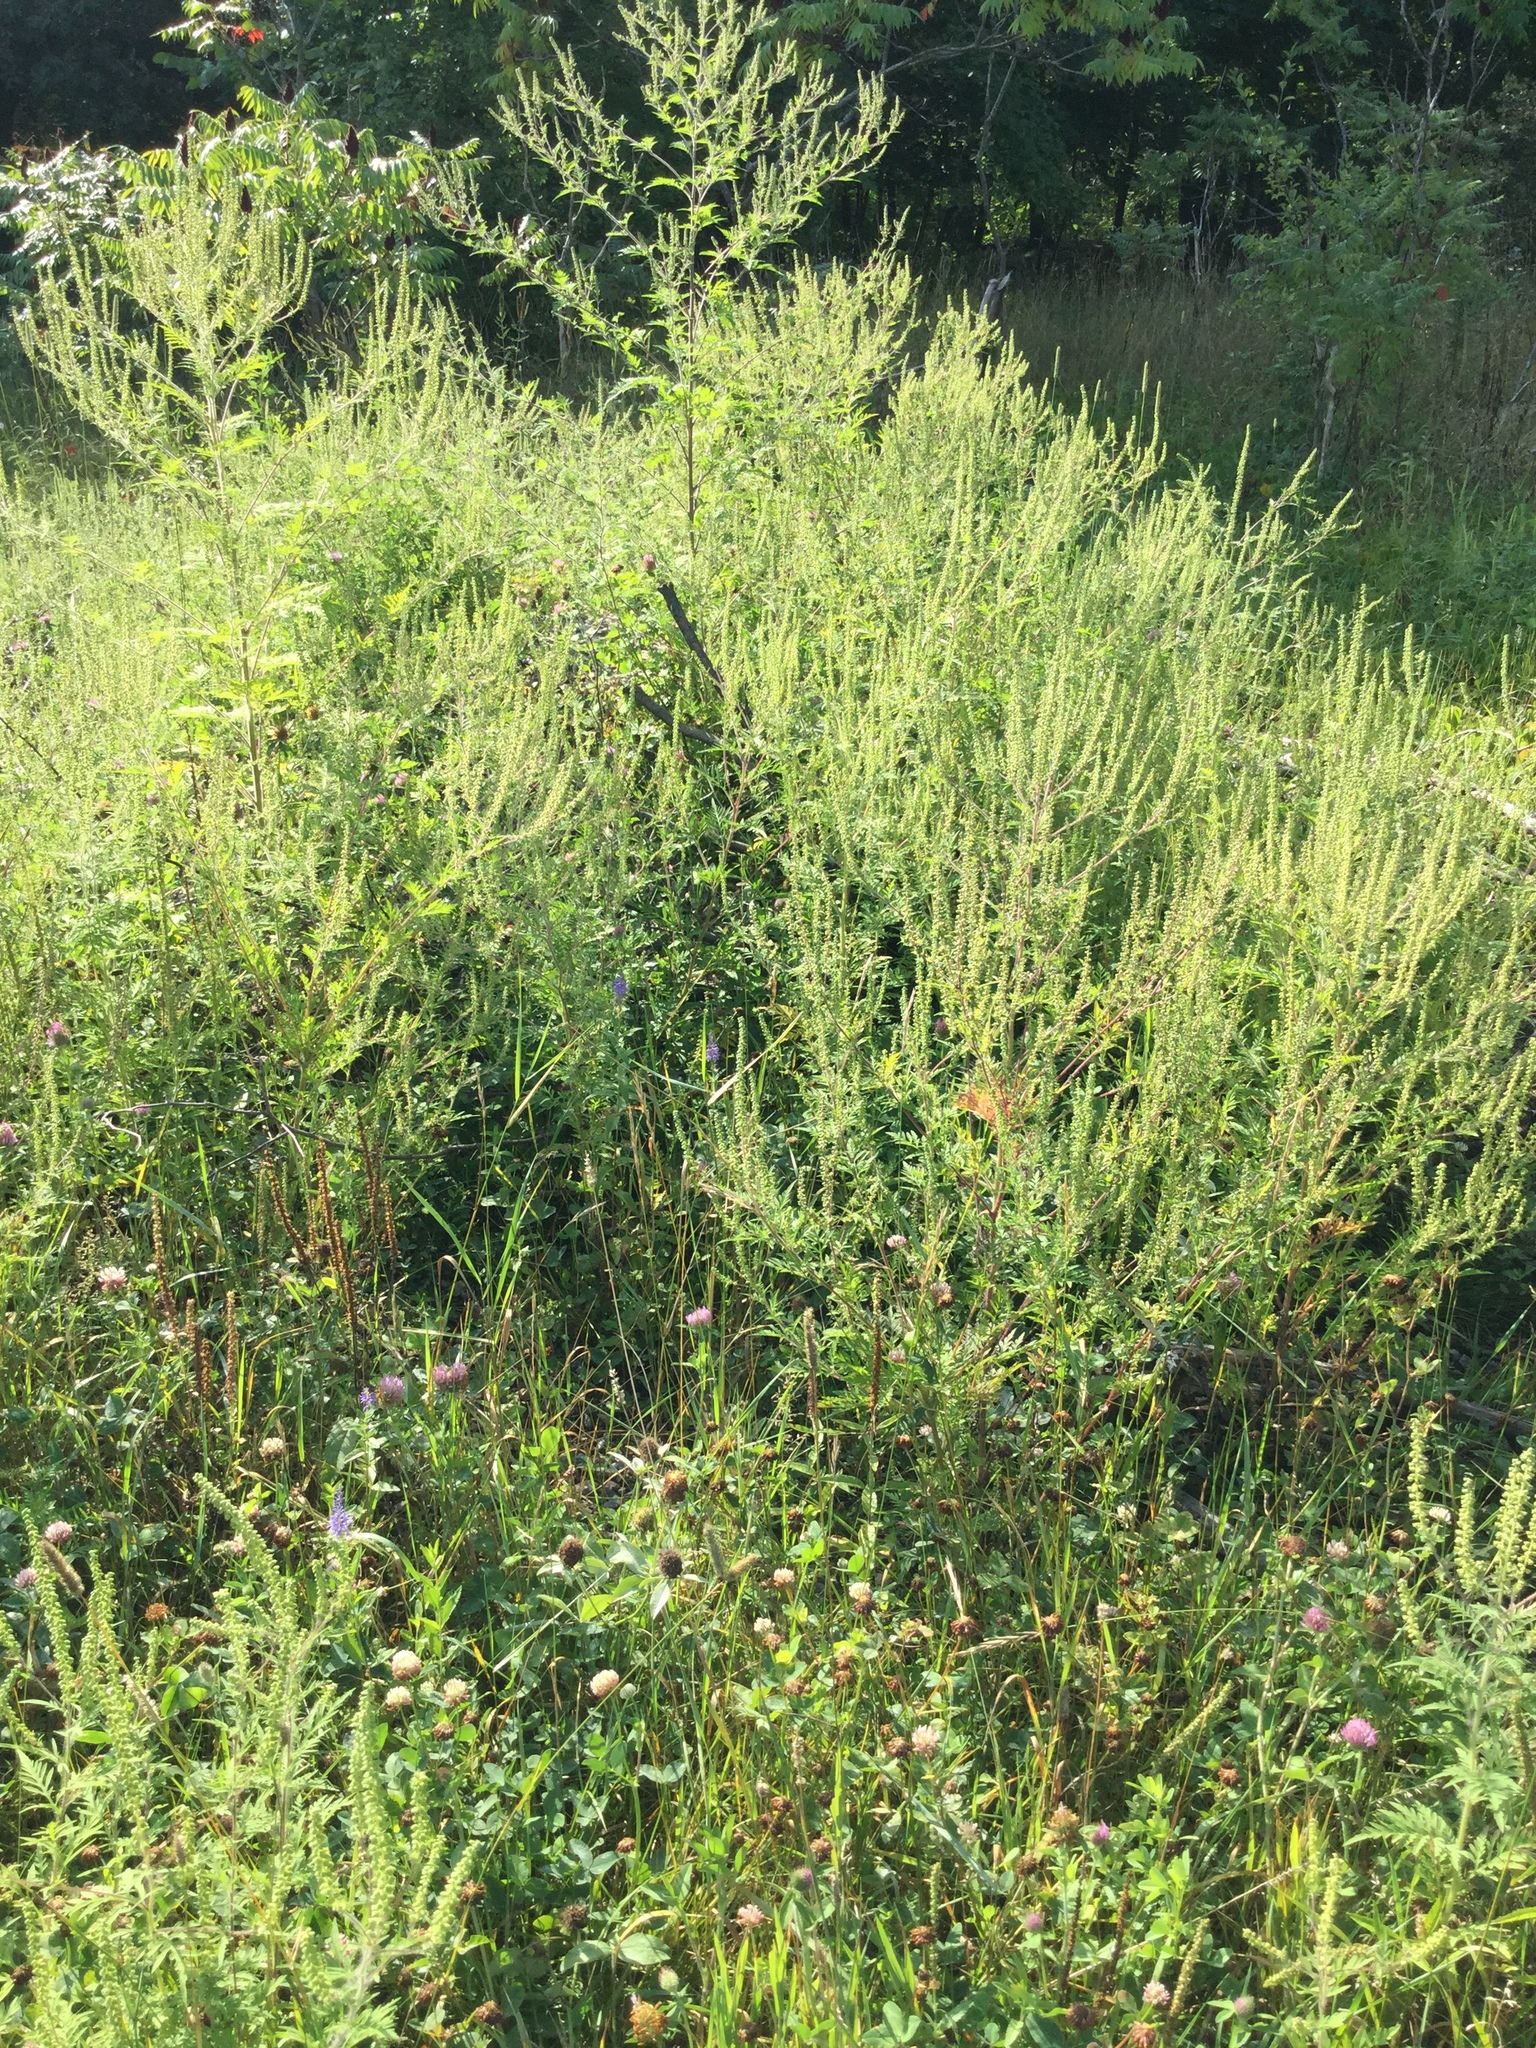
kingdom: Plantae
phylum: Tracheophyta
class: Magnoliopsida
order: Asterales
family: Asteraceae
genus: Ambrosia
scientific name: Ambrosia artemisiifolia
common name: Annual ragweed
